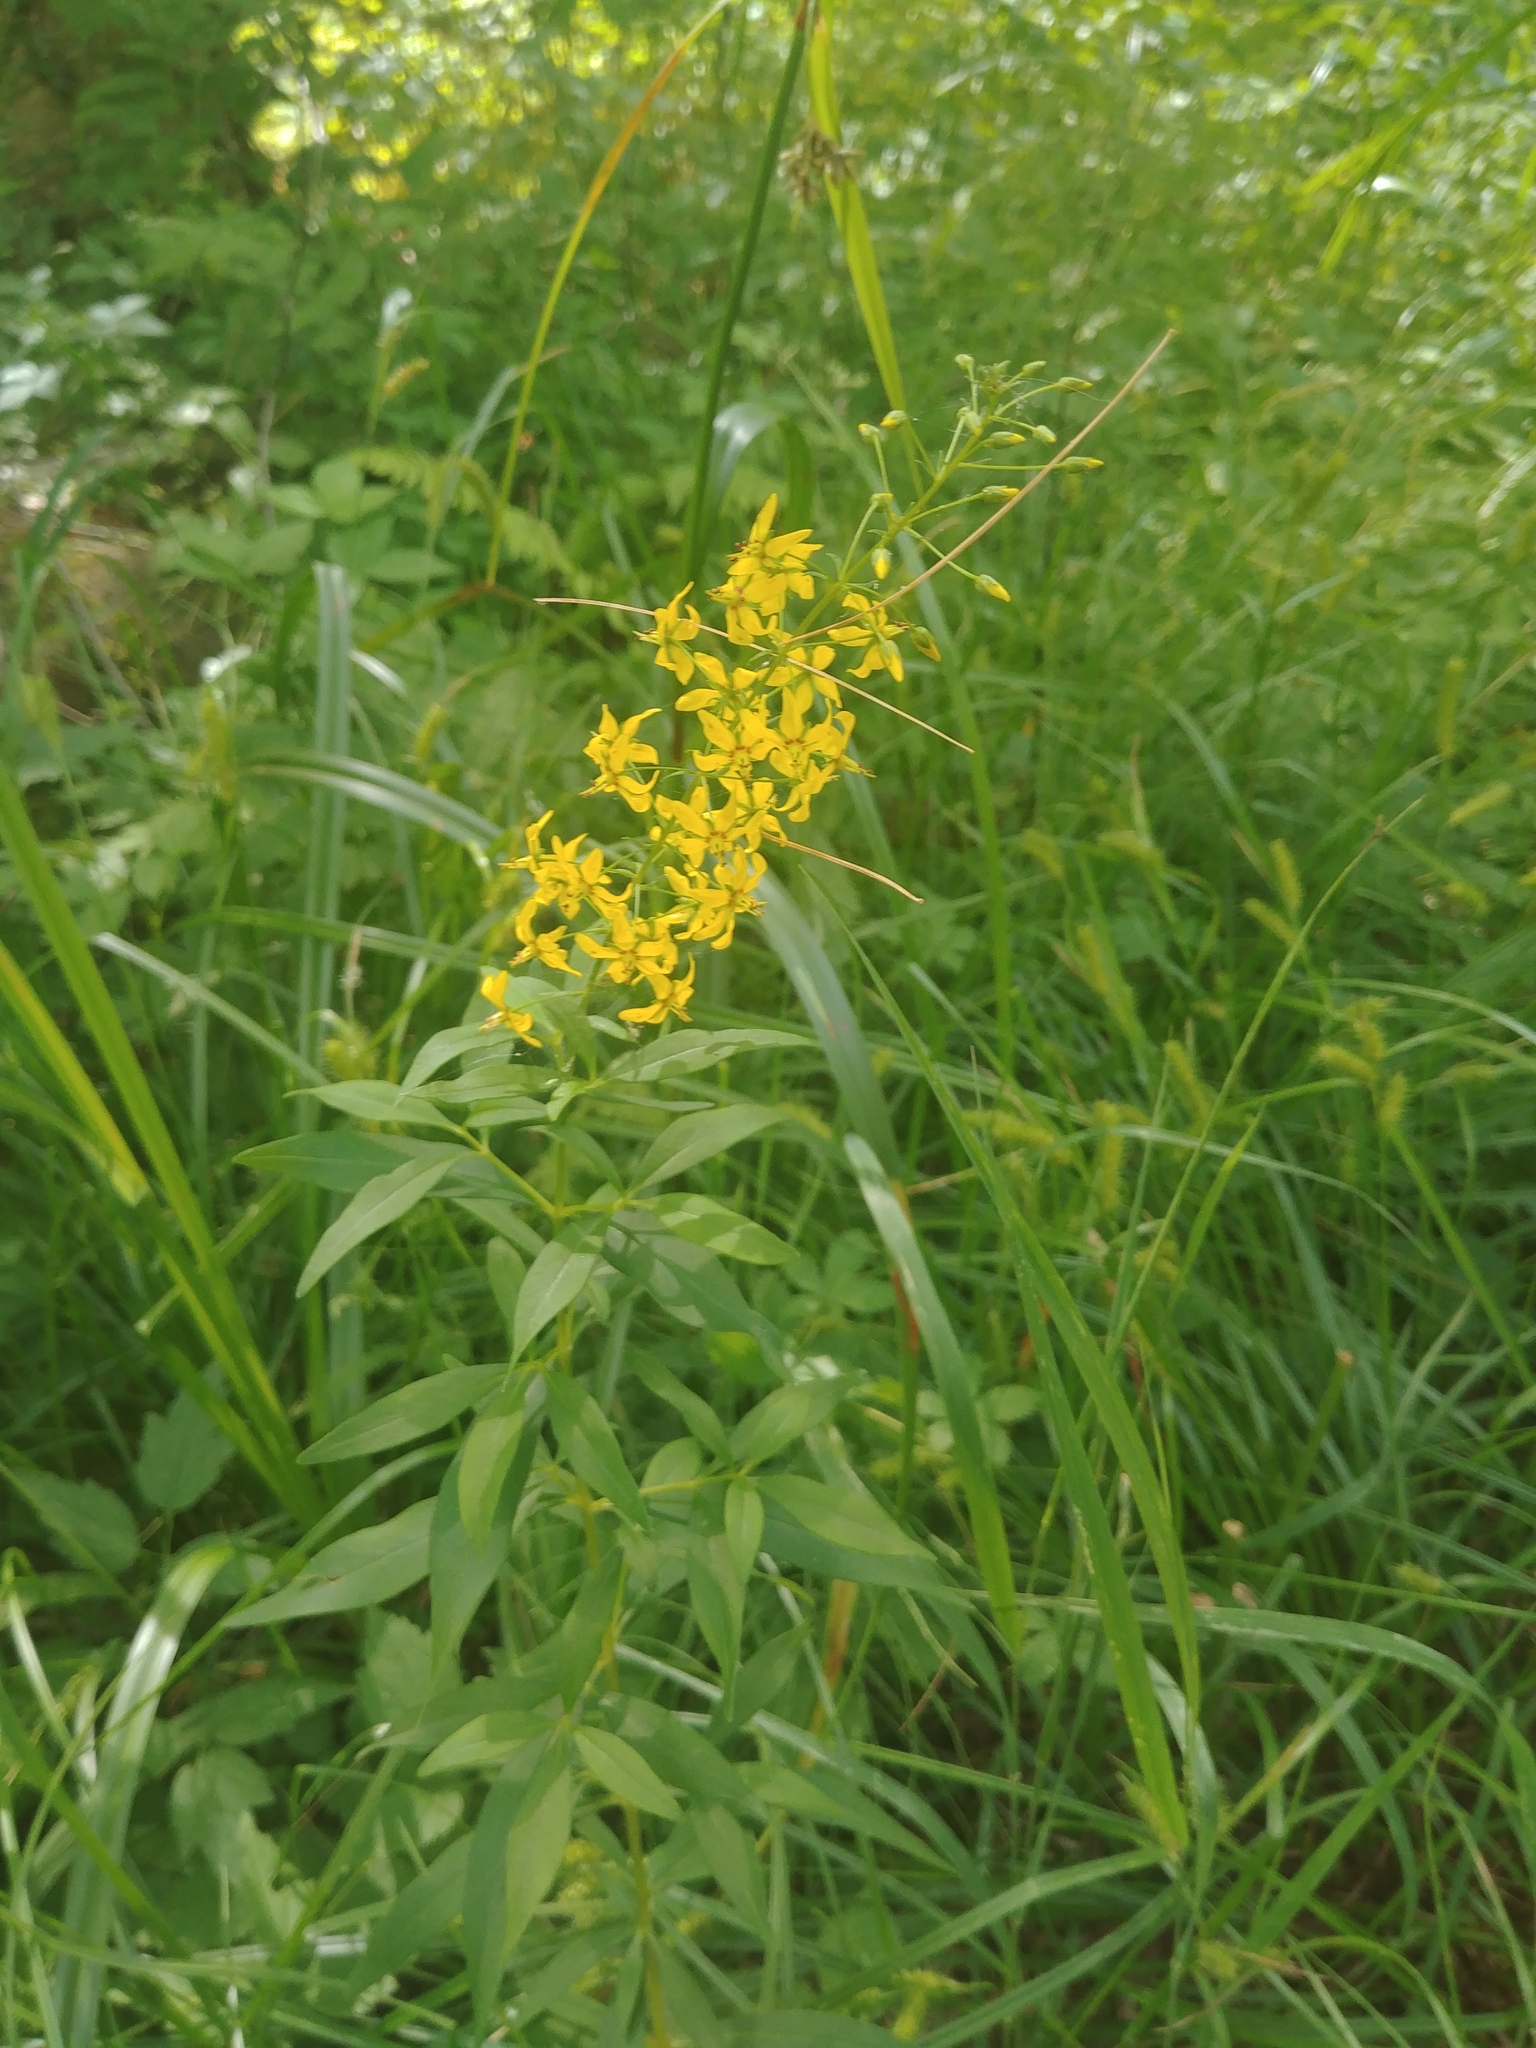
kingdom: Plantae
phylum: Tracheophyta
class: Magnoliopsida
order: Ericales
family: Primulaceae
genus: Lysimachia
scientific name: Lysimachia terrestris
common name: Lake loosestrife
